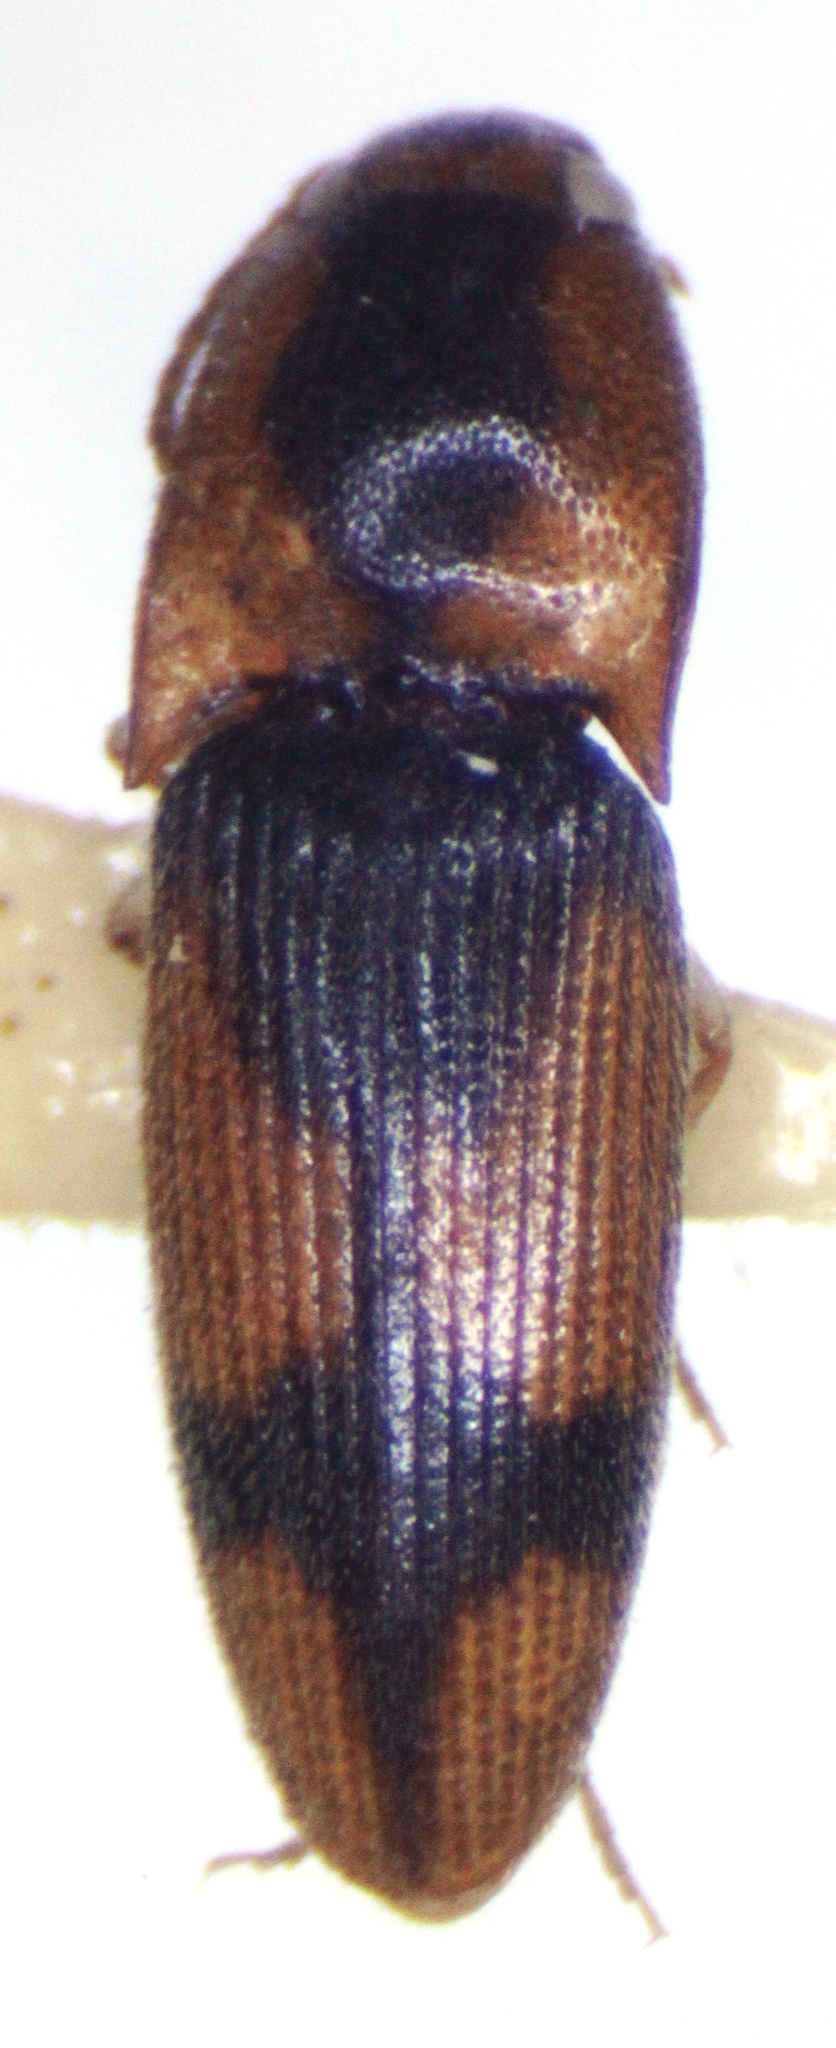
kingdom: Animalia
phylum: Arthropoda
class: Insecta
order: Coleoptera
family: Elateridae
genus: Monocrepidius
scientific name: Monocrepidius vartiani
